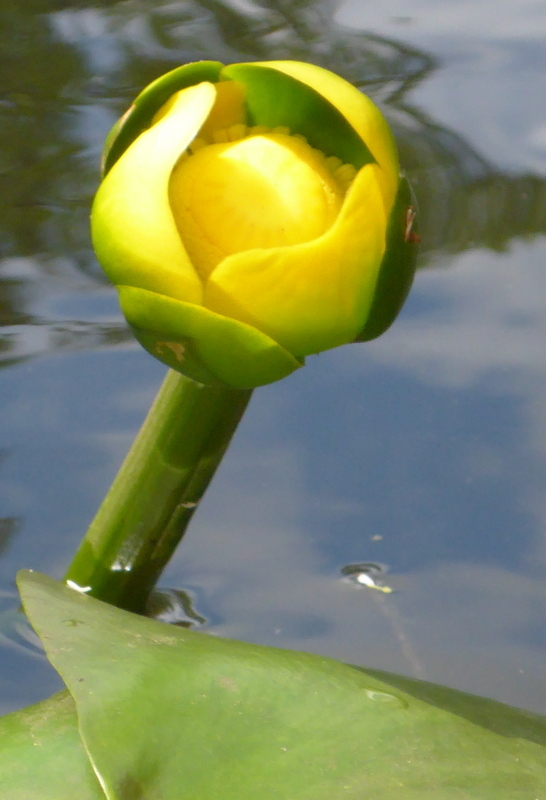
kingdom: Plantae
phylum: Tracheophyta
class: Magnoliopsida
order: Nymphaeales
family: Nymphaeaceae
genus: Nuphar
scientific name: Nuphar advena
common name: Spatter-dock
